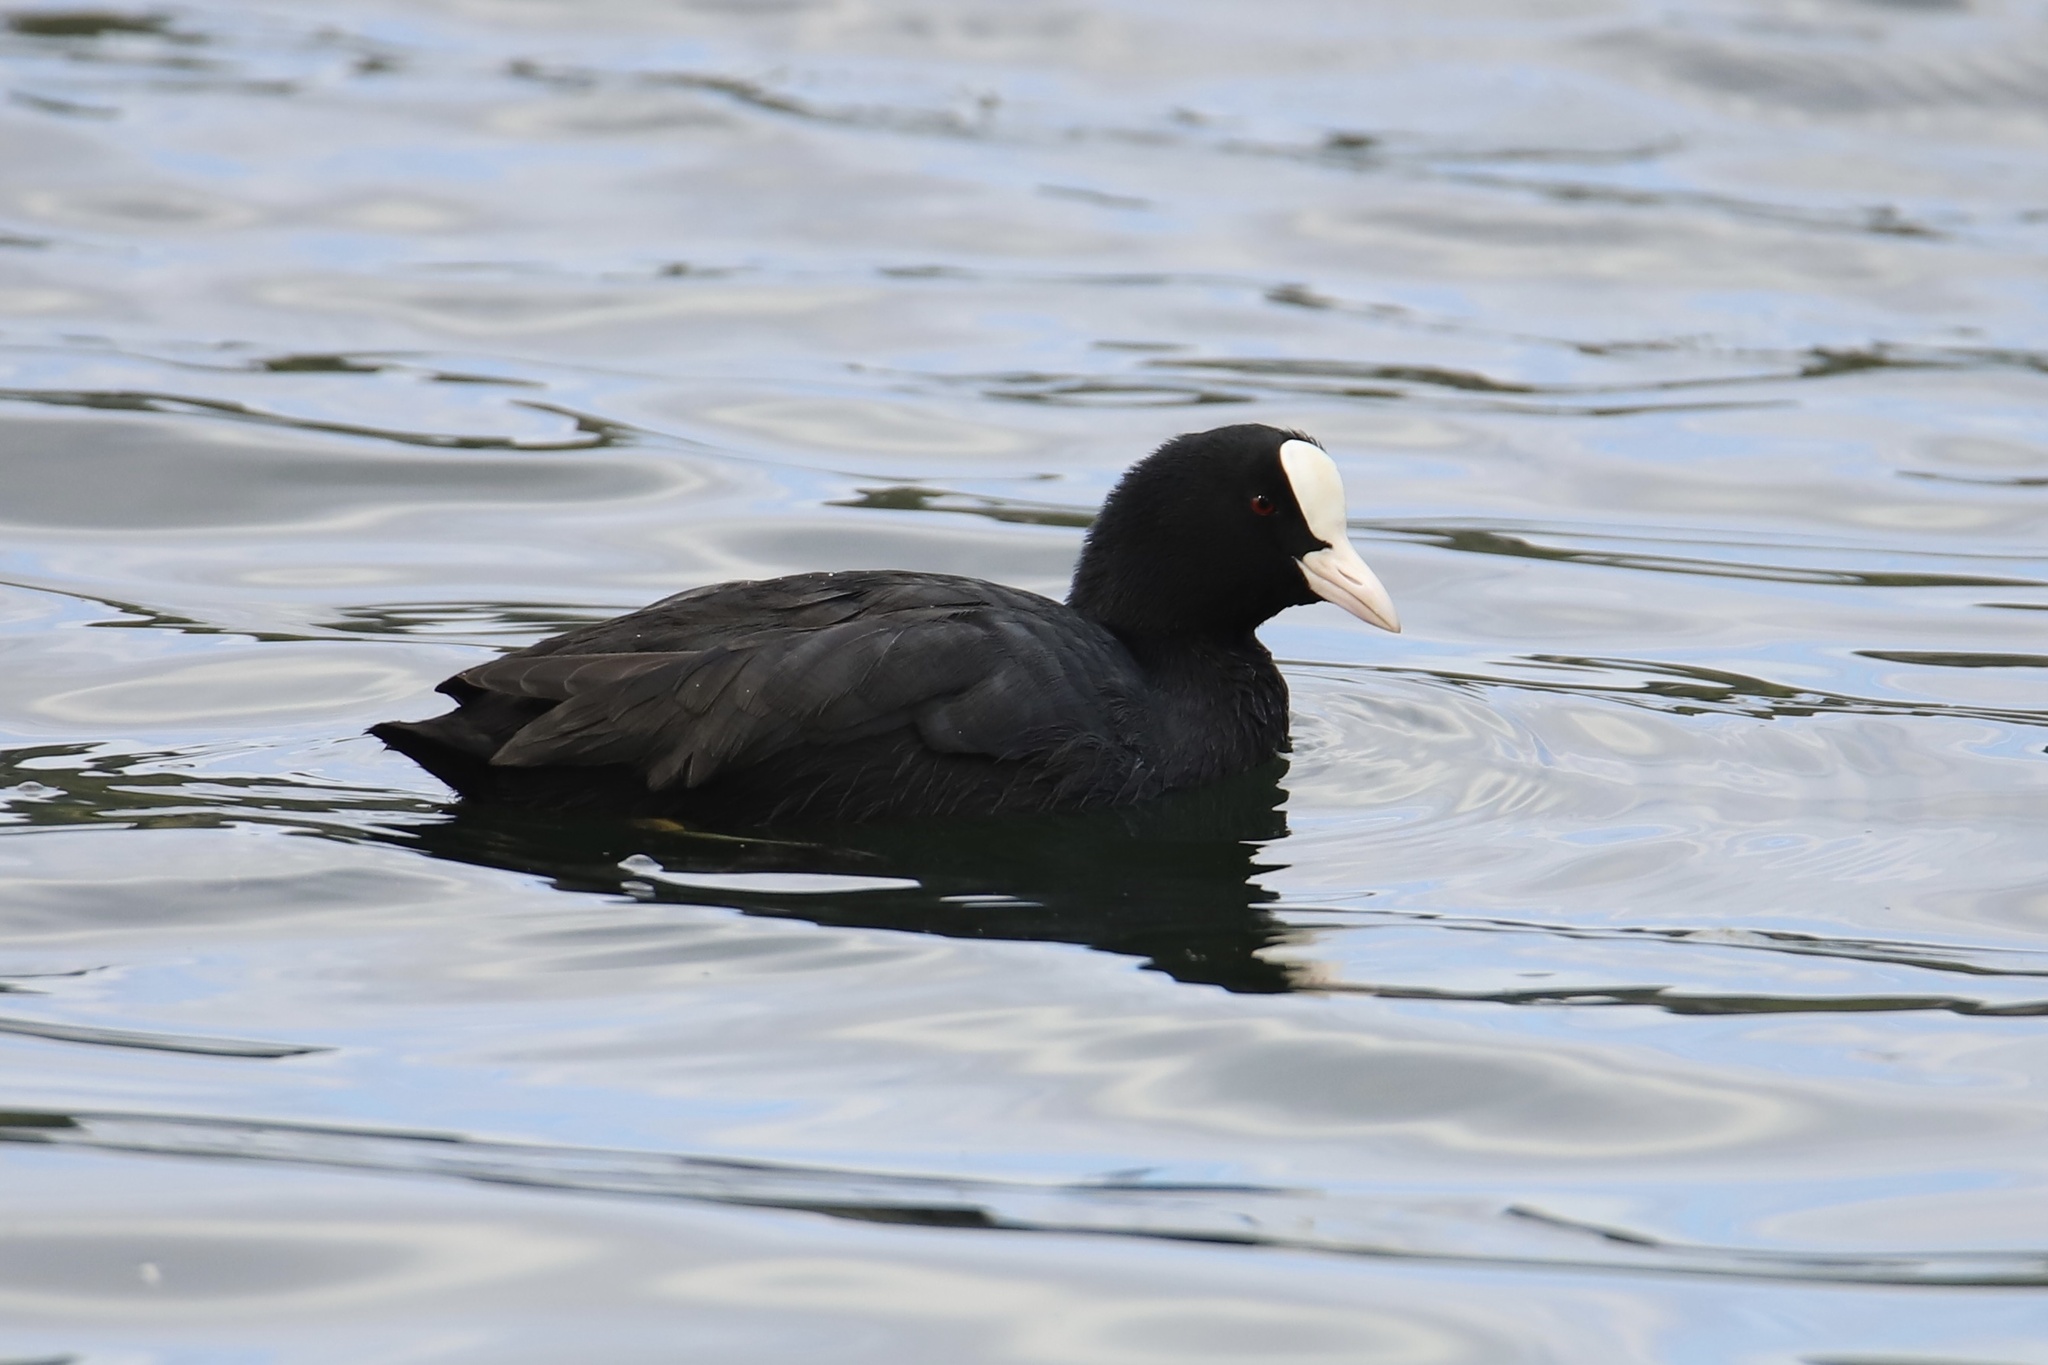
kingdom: Animalia
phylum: Chordata
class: Aves
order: Gruiformes
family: Rallidae
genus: Fulica
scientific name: Fulica atra
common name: Eurasian coot
